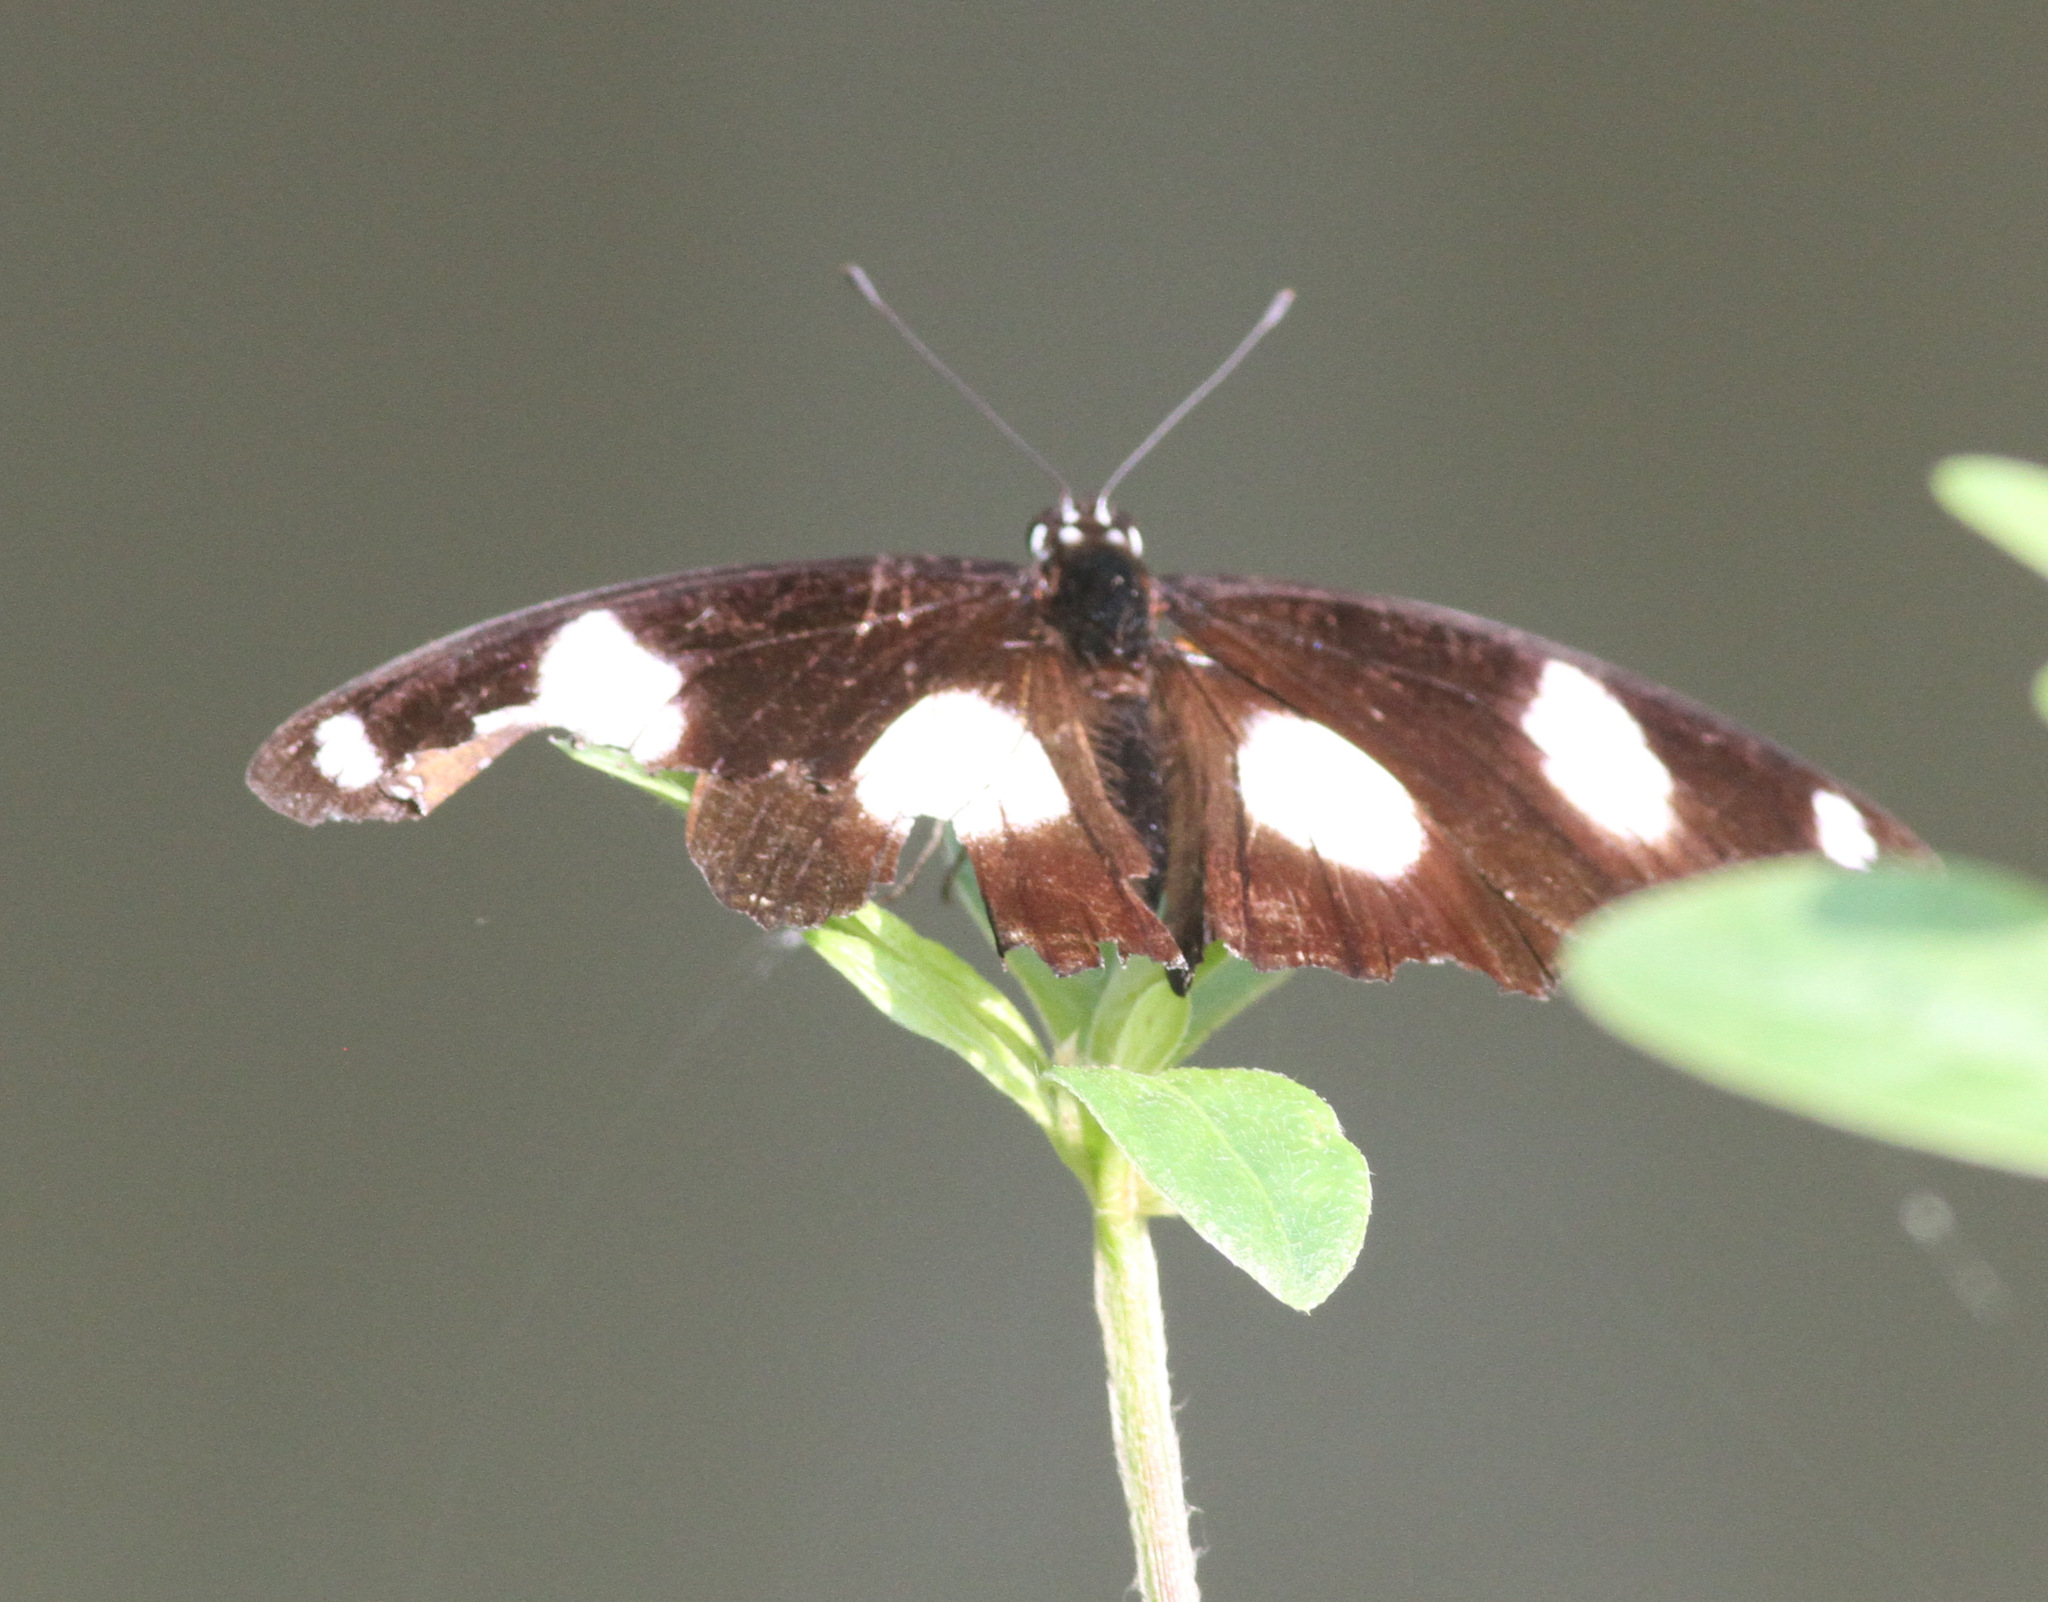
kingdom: Animalia
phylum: Arthropoda
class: Insecta
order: Lepidoptera
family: Nymphalidae
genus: Hypolimnas
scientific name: Hypolimnas misippus
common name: False plain tiger
